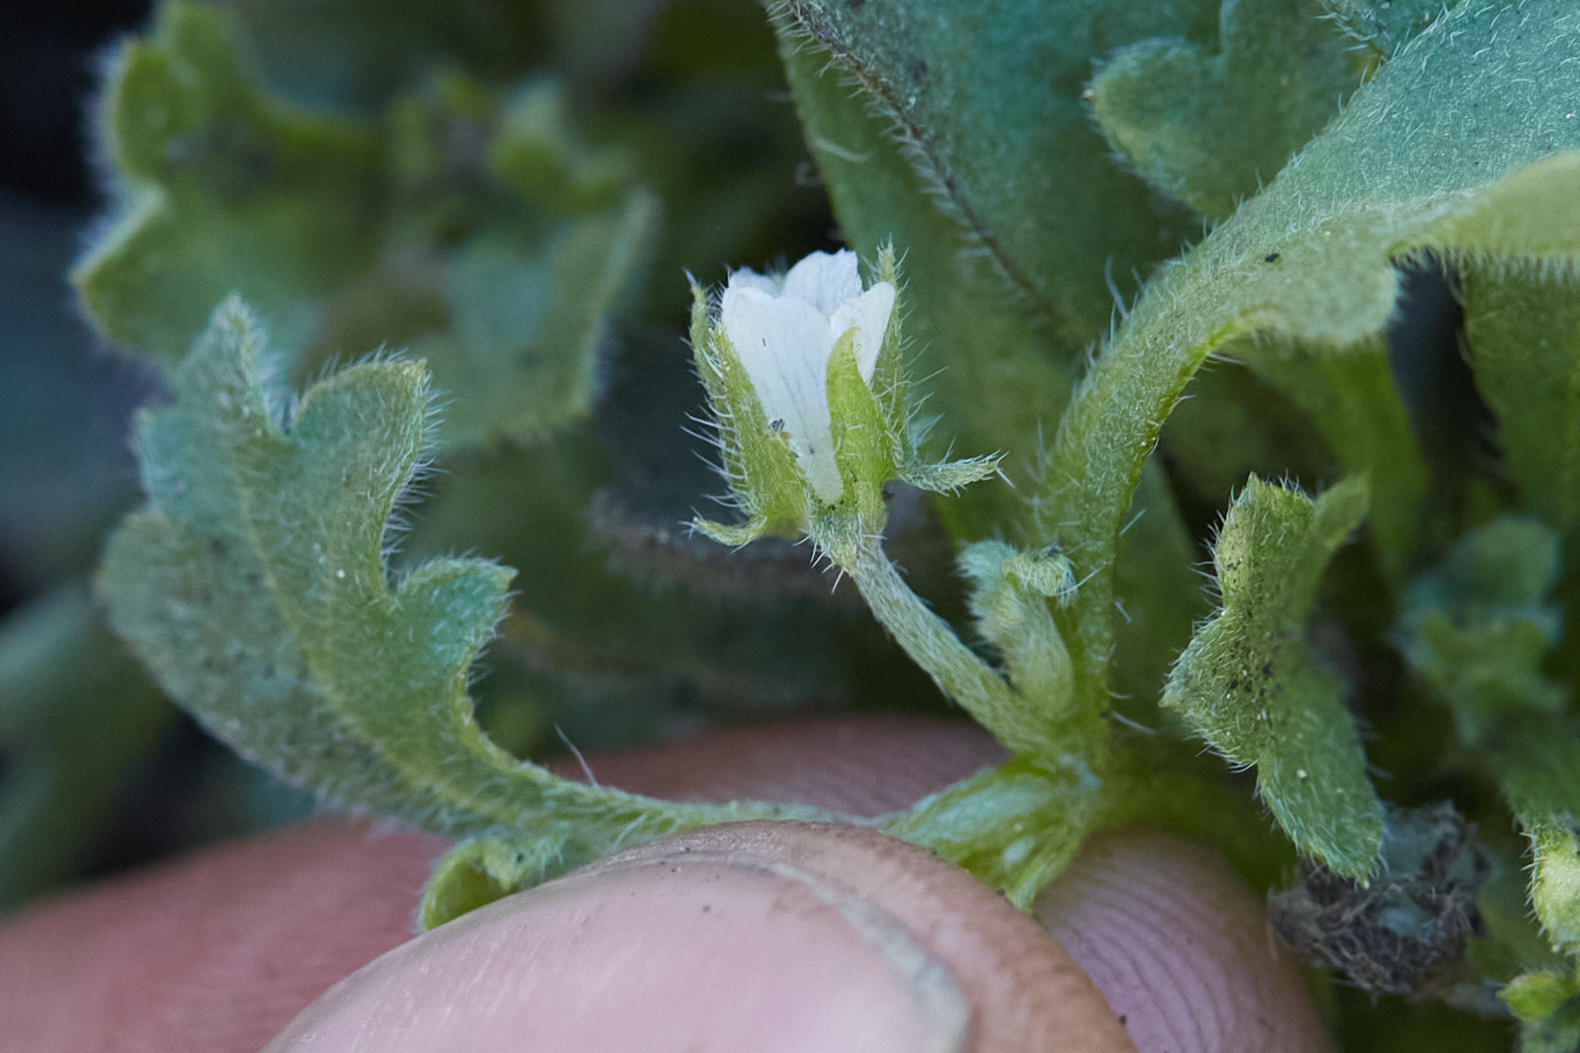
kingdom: Plantae
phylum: Tracheophyta
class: Magnoliopsida
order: Boraginales
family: Hydrophyllaceae
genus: Nemophila
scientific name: Nemophila spatulata
